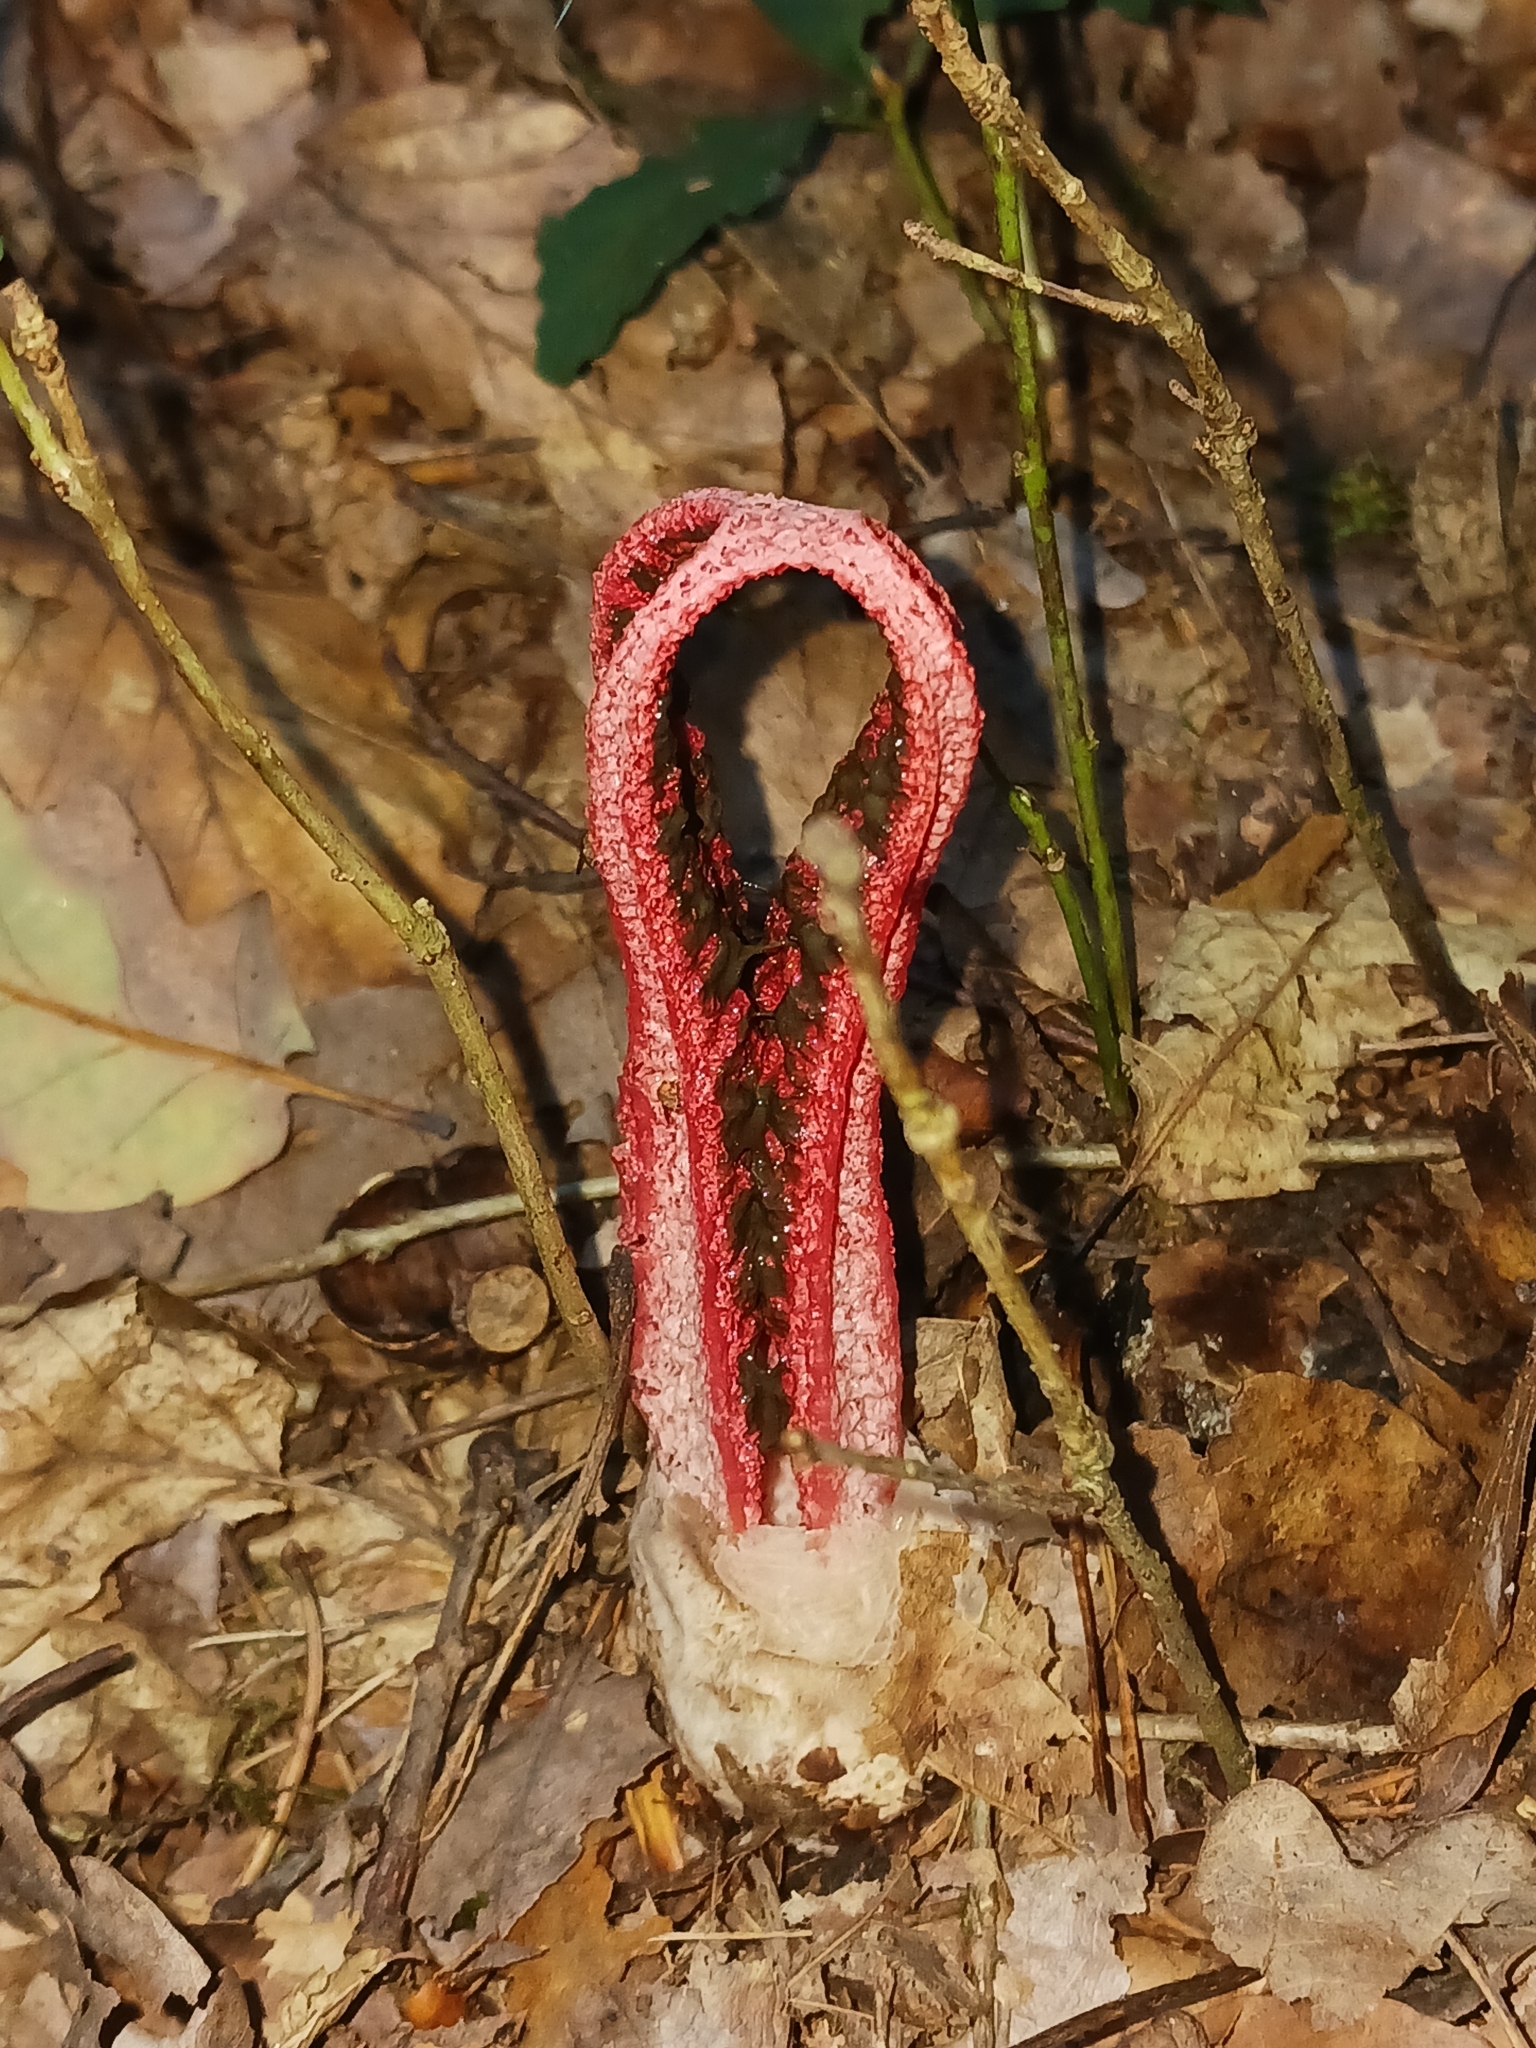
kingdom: Fungi
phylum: Basidiomycota
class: Agaricomycetes
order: Phallales
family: Phallaceae
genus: Clathrus
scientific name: Clathrus archeri
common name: Devil's fingers
